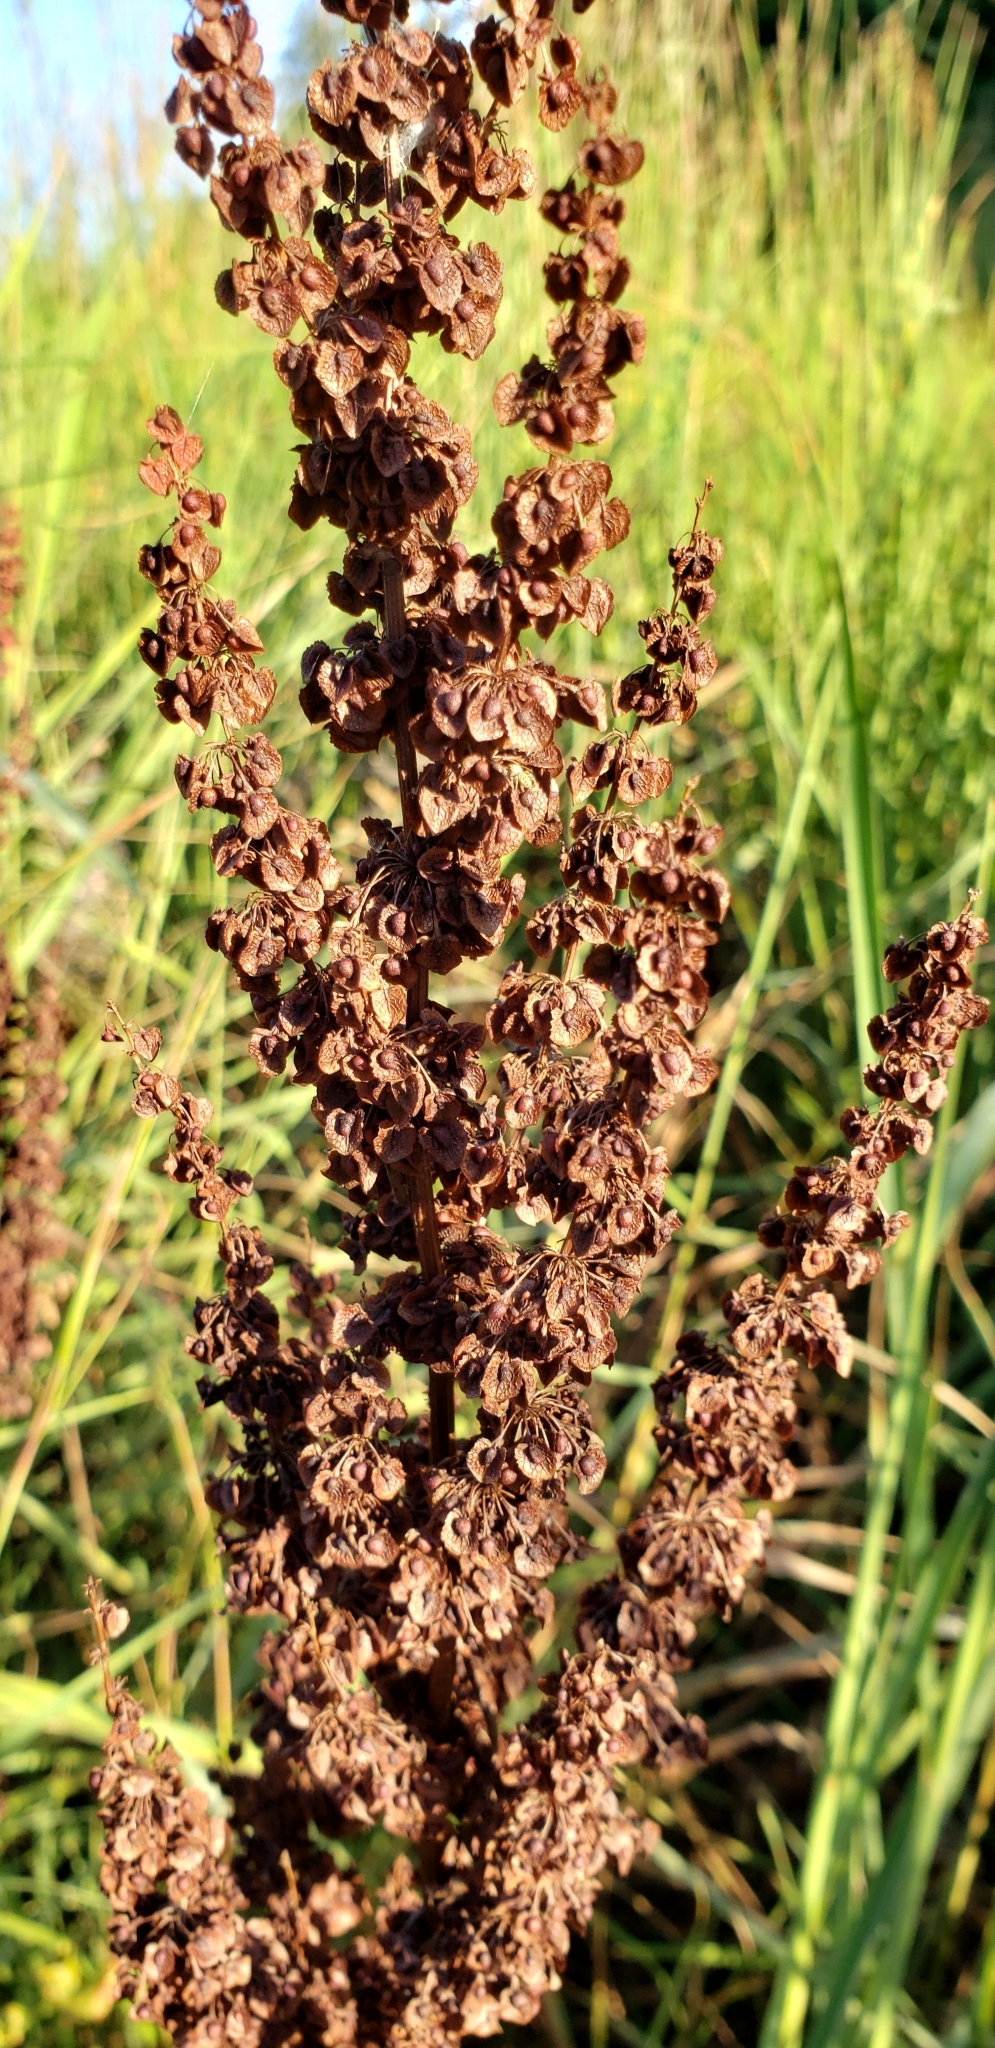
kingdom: Plantae
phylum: Tracheophyta
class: Magnoliopsida
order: Caryophyllales
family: Polygonaceae
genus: Rumex
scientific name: Rumex crispus
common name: Curled dock
